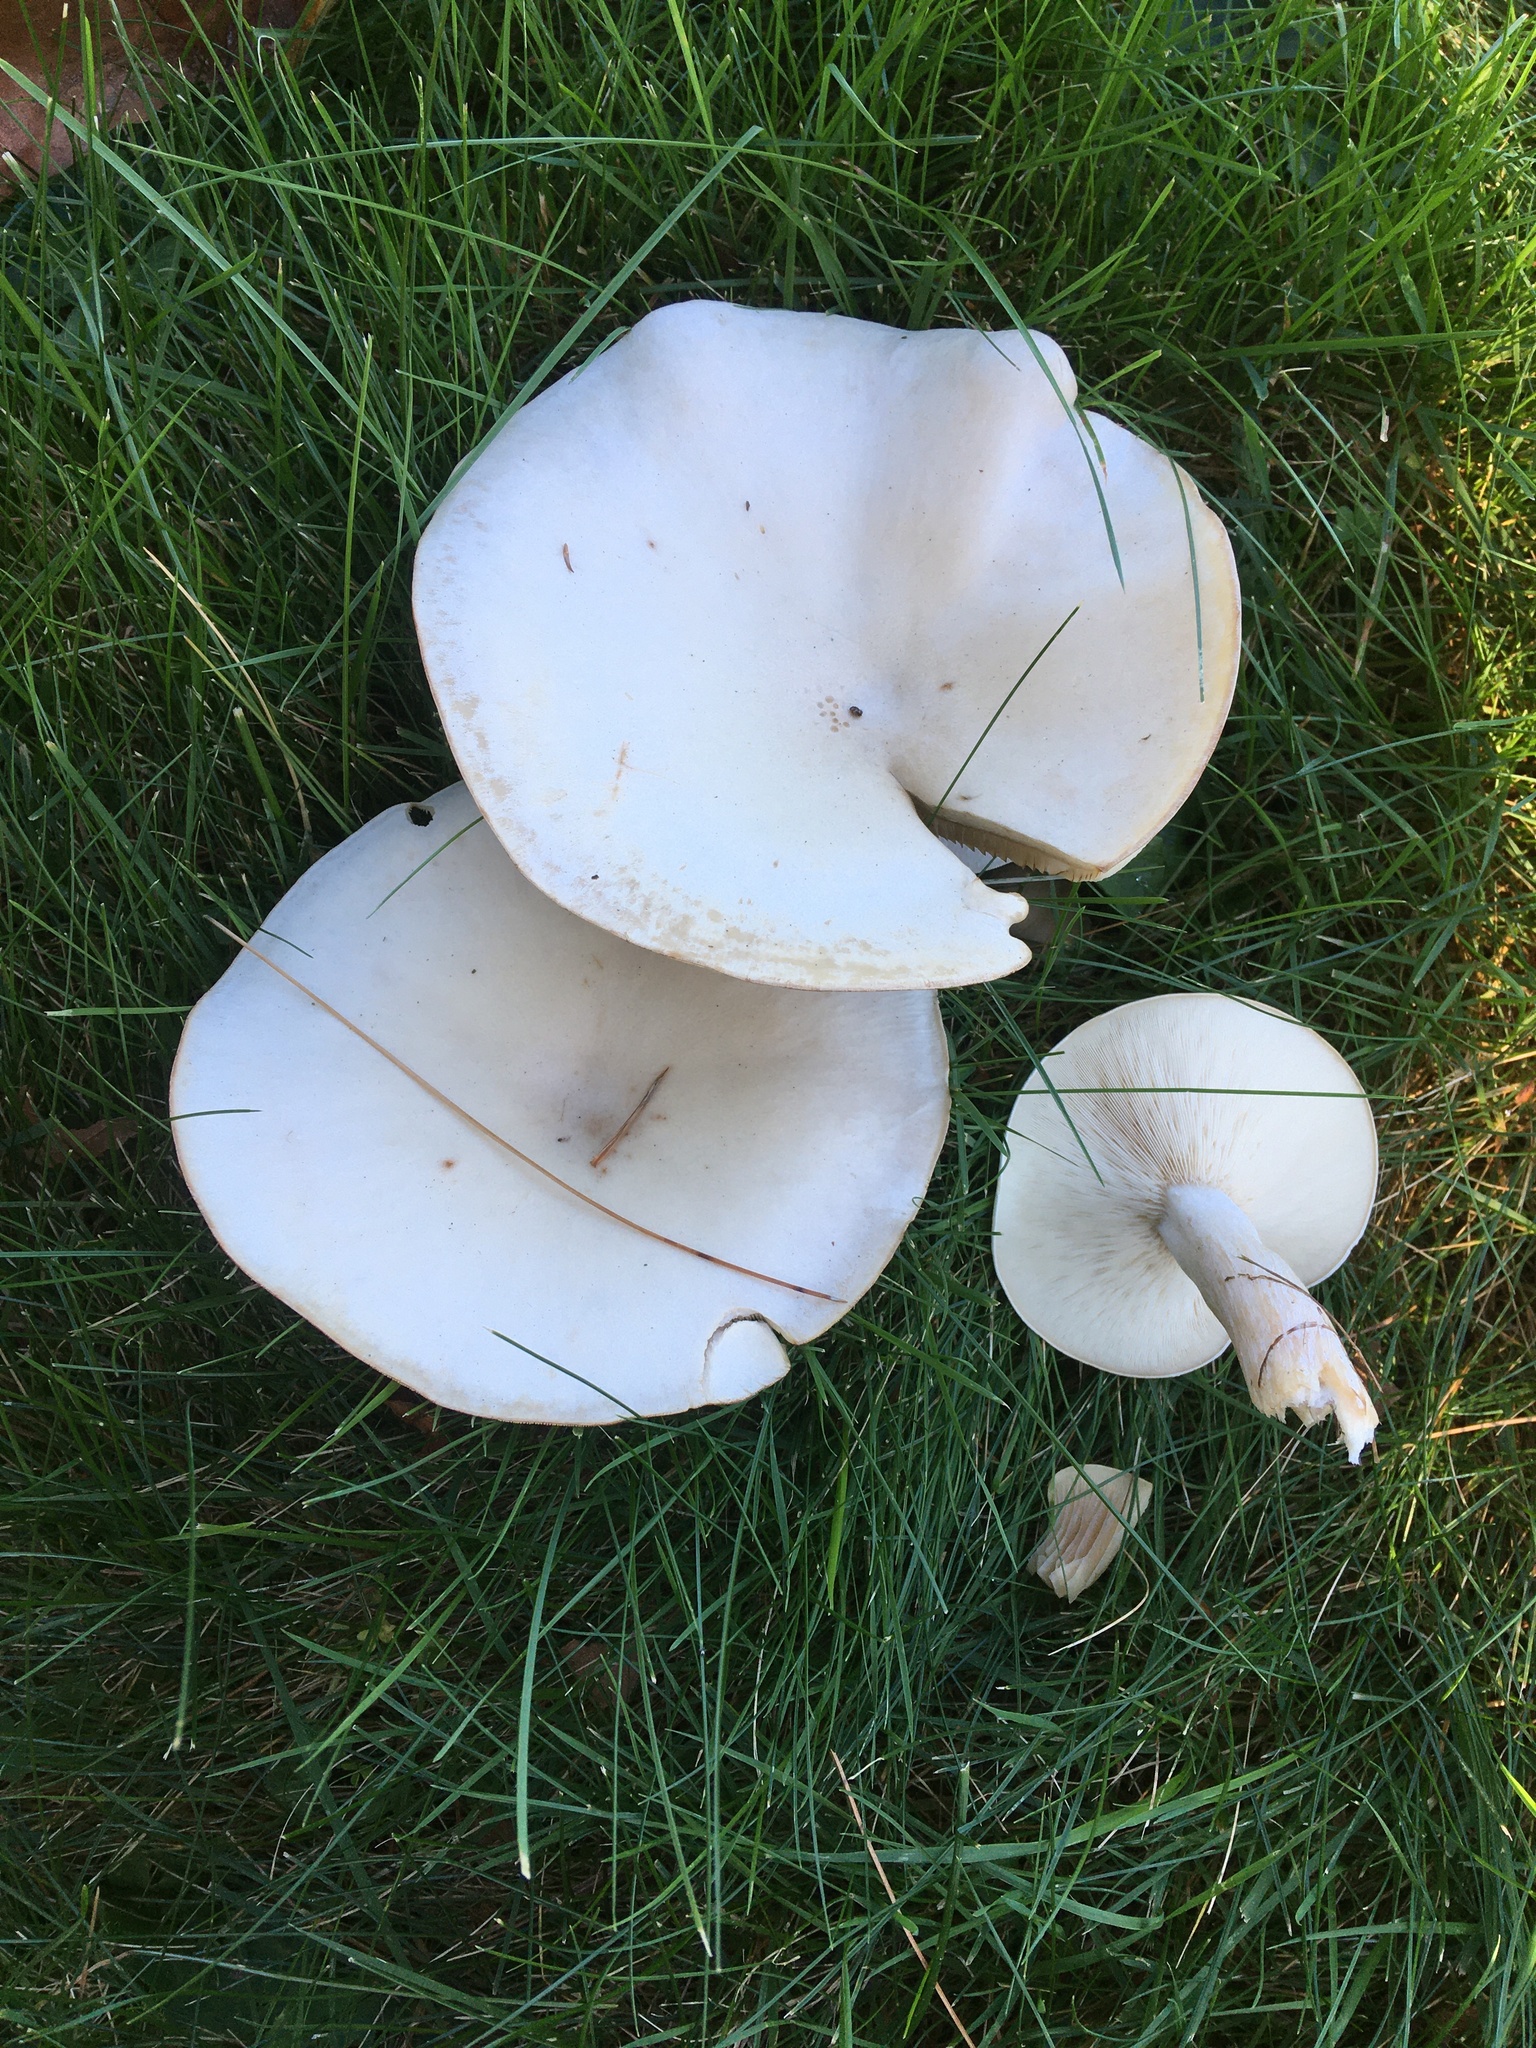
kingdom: Fungi
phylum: Basidiomycota
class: Agaricomycetes
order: Agaricales
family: Tricholomataceae
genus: Lepista
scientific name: Lepista subconnexa
